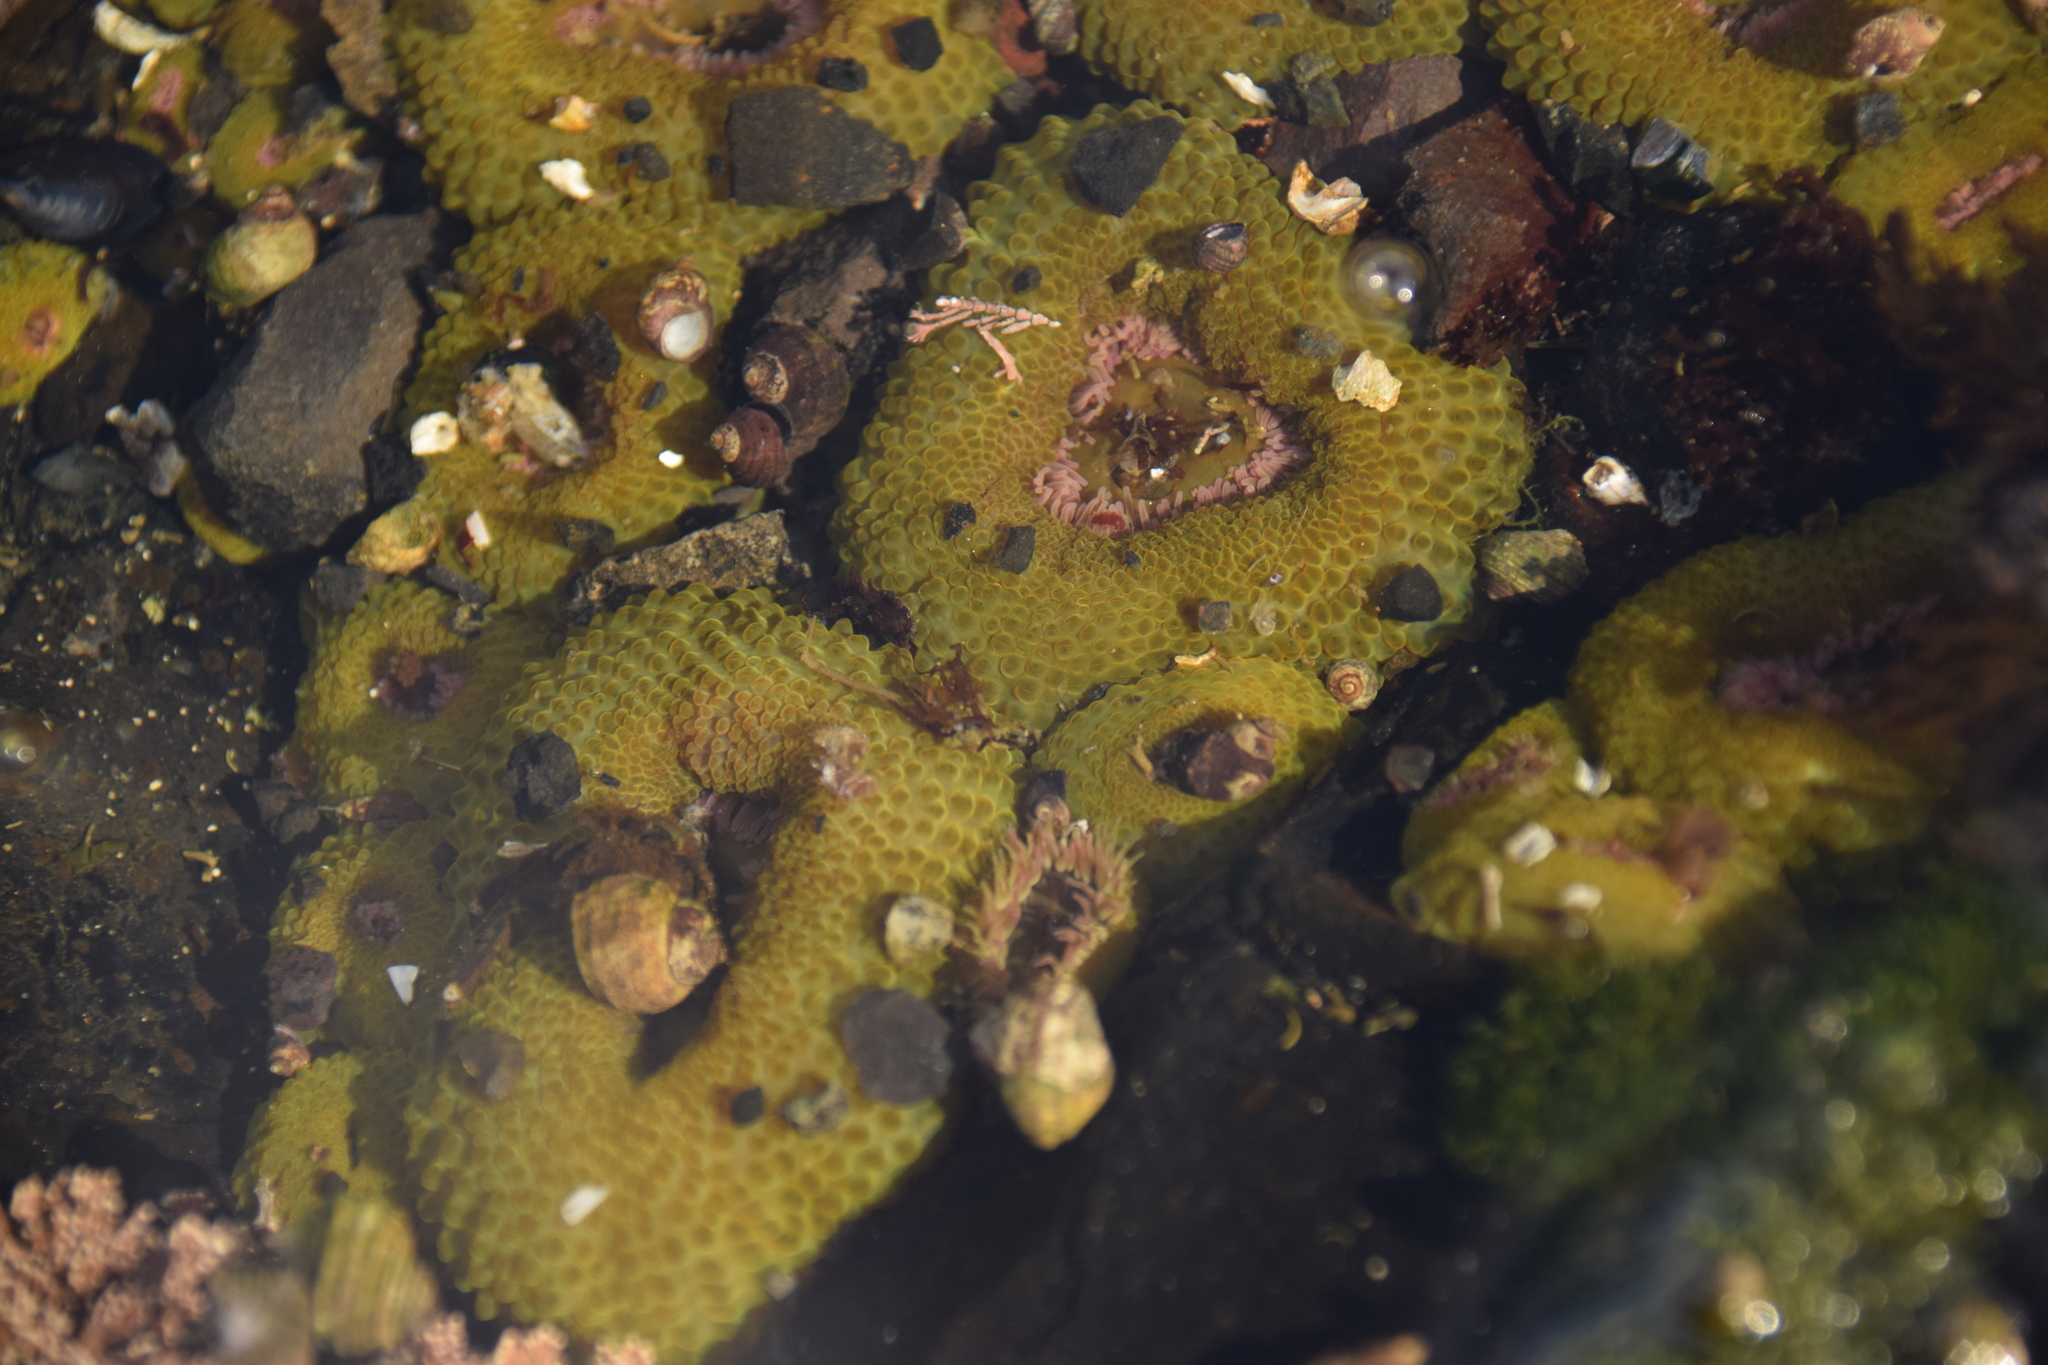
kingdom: Animalia
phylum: Cnidaria
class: Anthozoa
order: Actiniaria
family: Actiniidae
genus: Anthopleura
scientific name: Anthopleura elegantissima
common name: Clonal anemone
